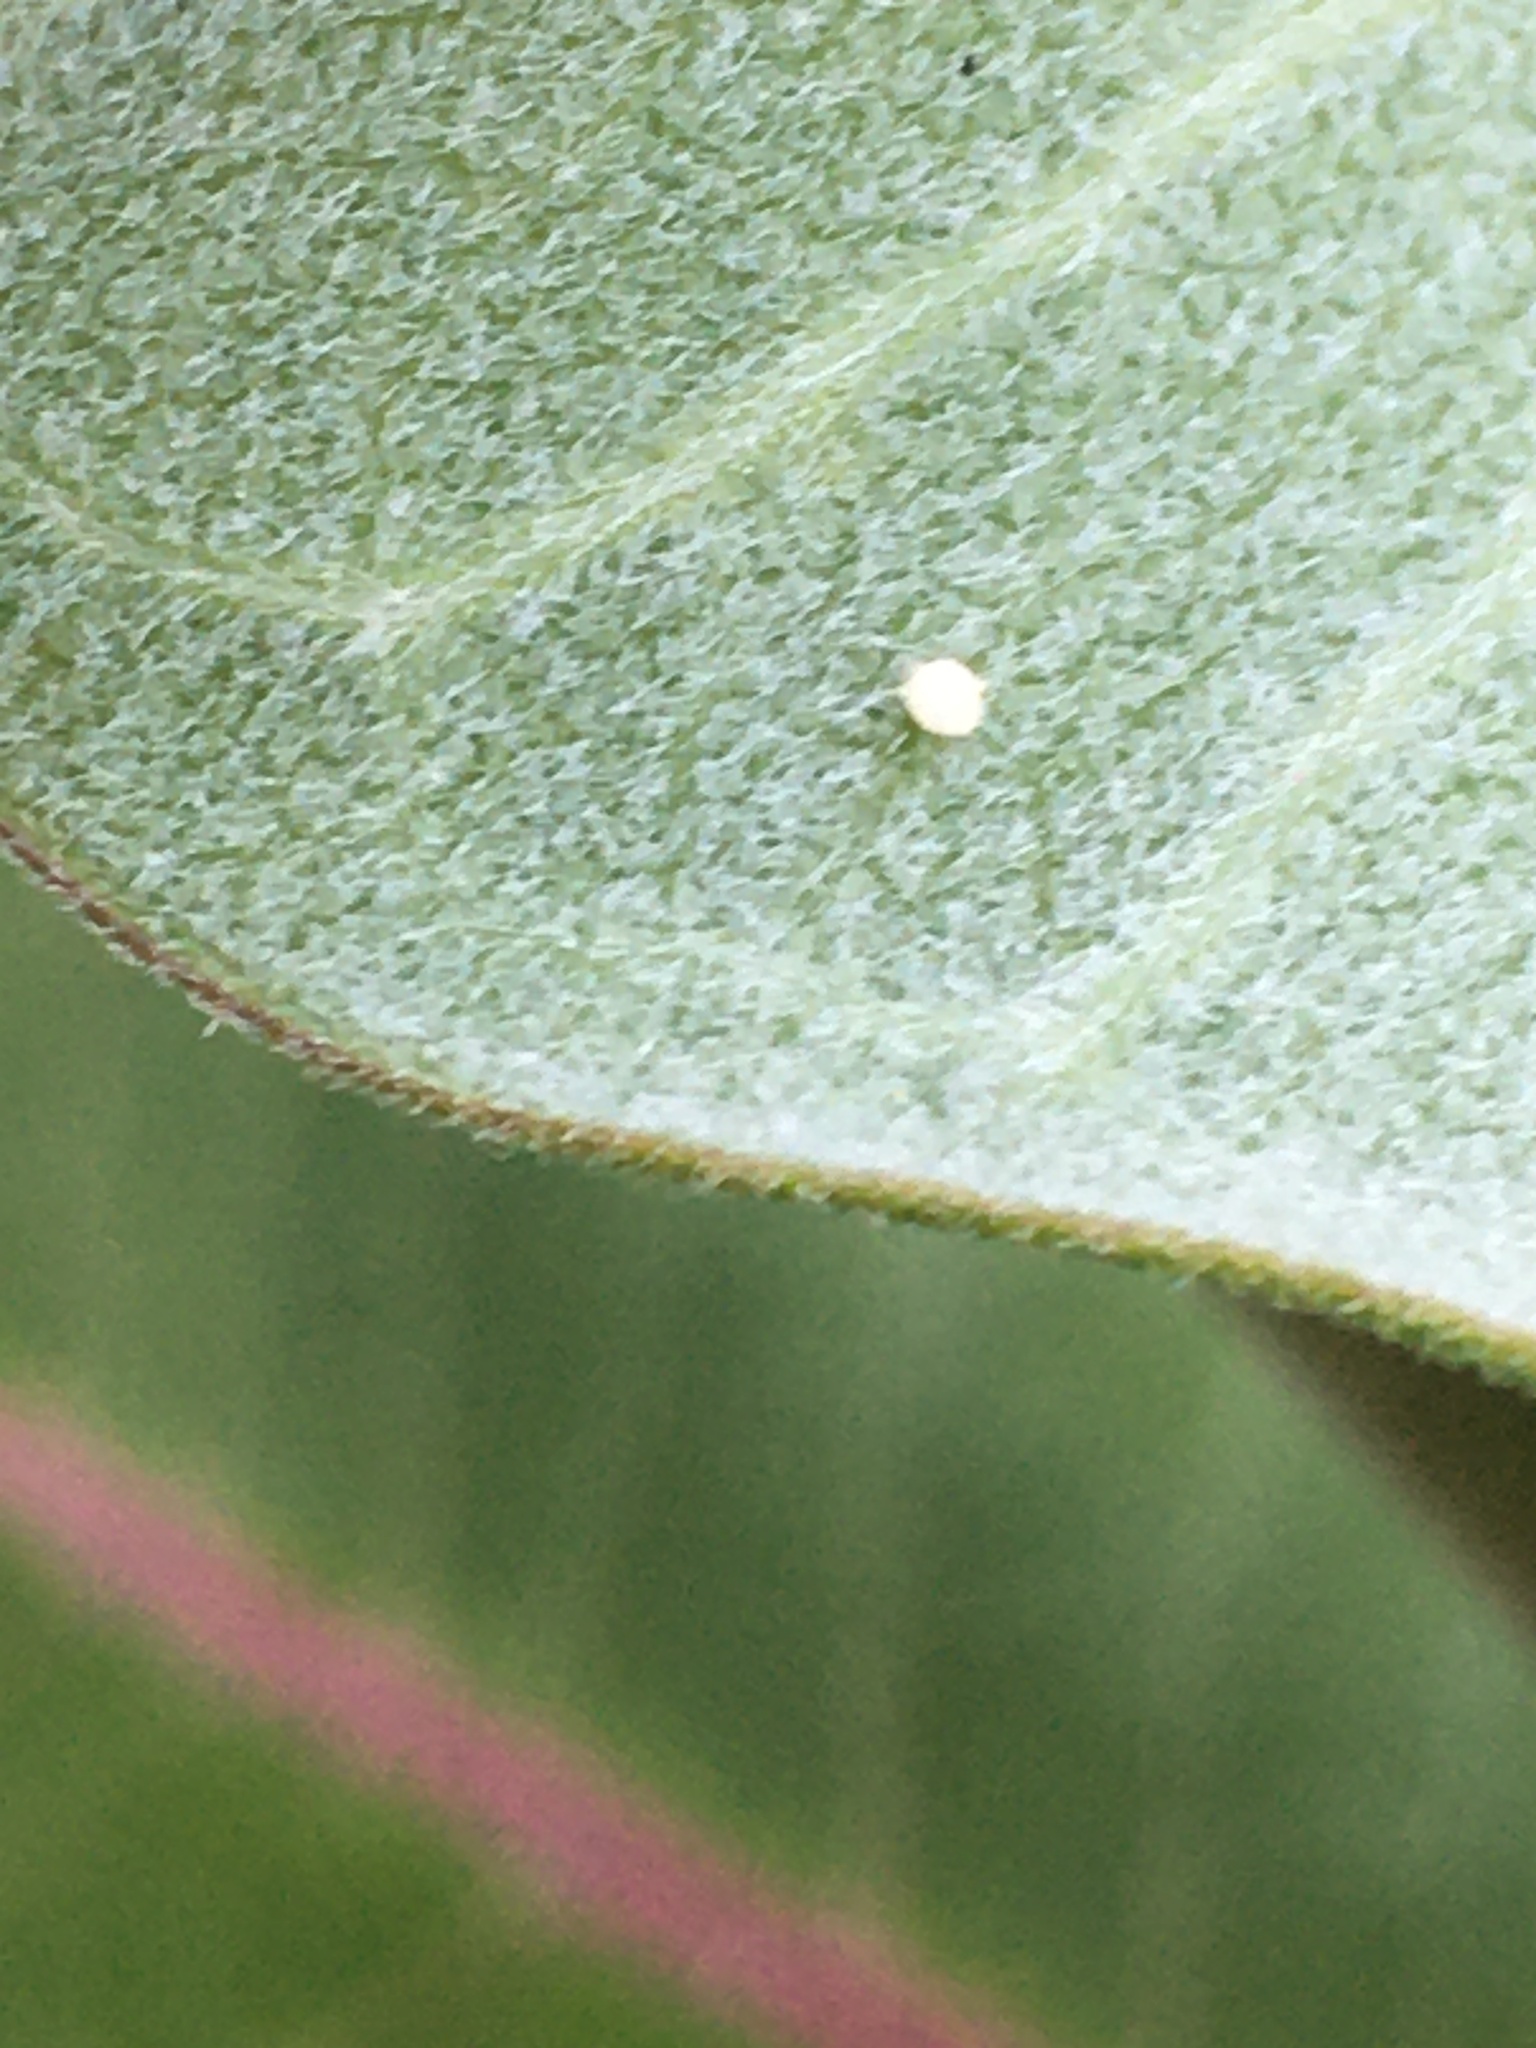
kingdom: Animalia
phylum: Arthropoda
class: Insecta
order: Lepidoptera
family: Nymphalidae
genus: Danaus
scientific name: Danaus plexippus
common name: Monarch
